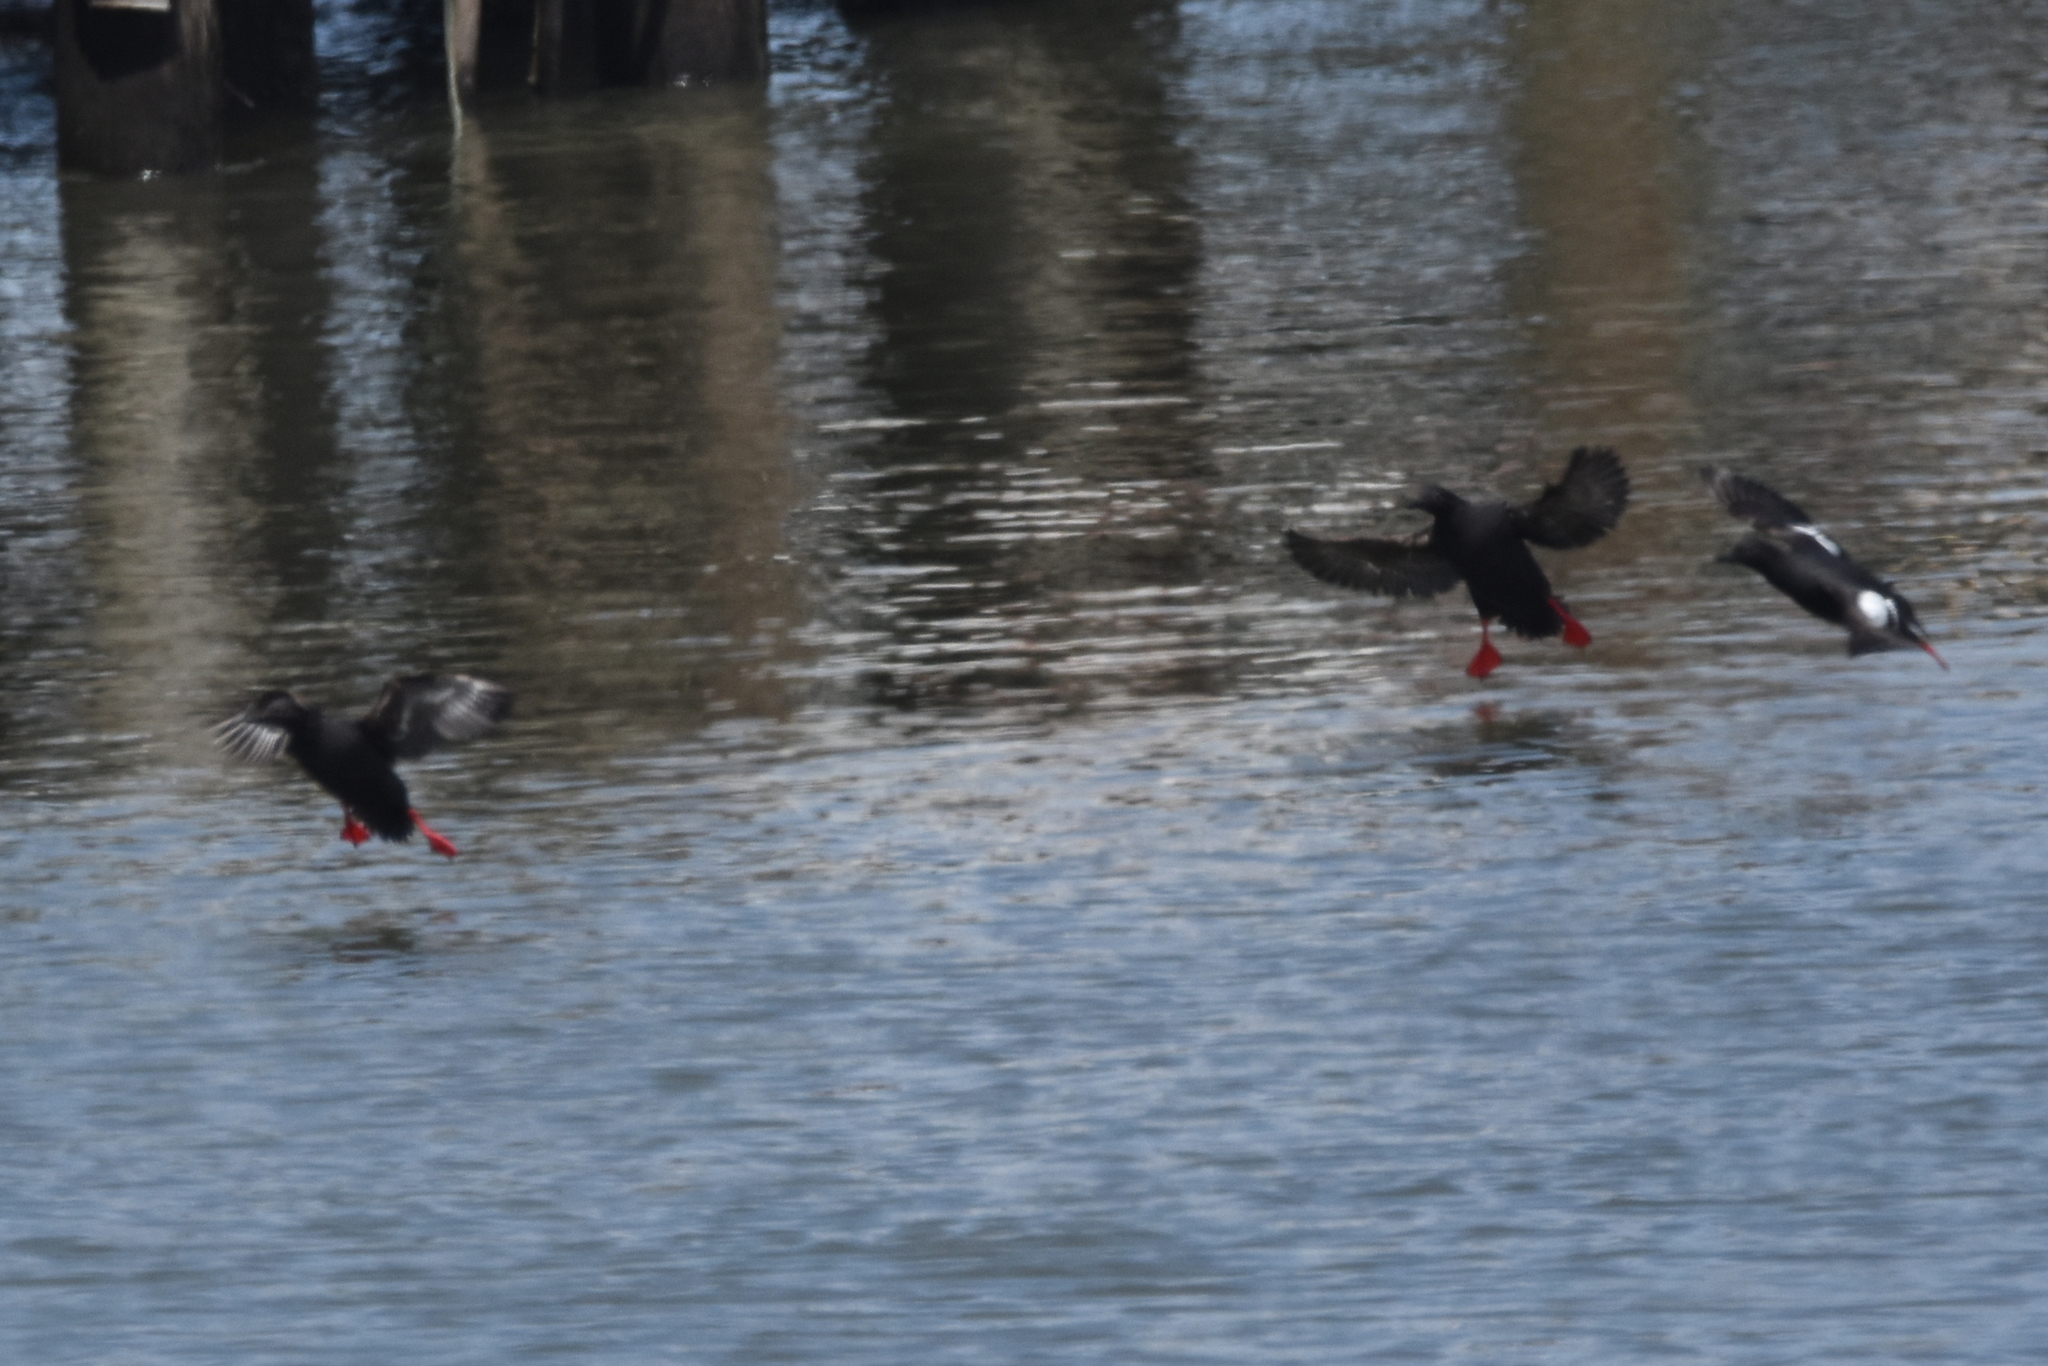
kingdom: Animalia
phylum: Chordata
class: Aves
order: Charadriiformes
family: Alcidae
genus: Cepphus
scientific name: Cepphus columba
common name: Pigeon guillemot
